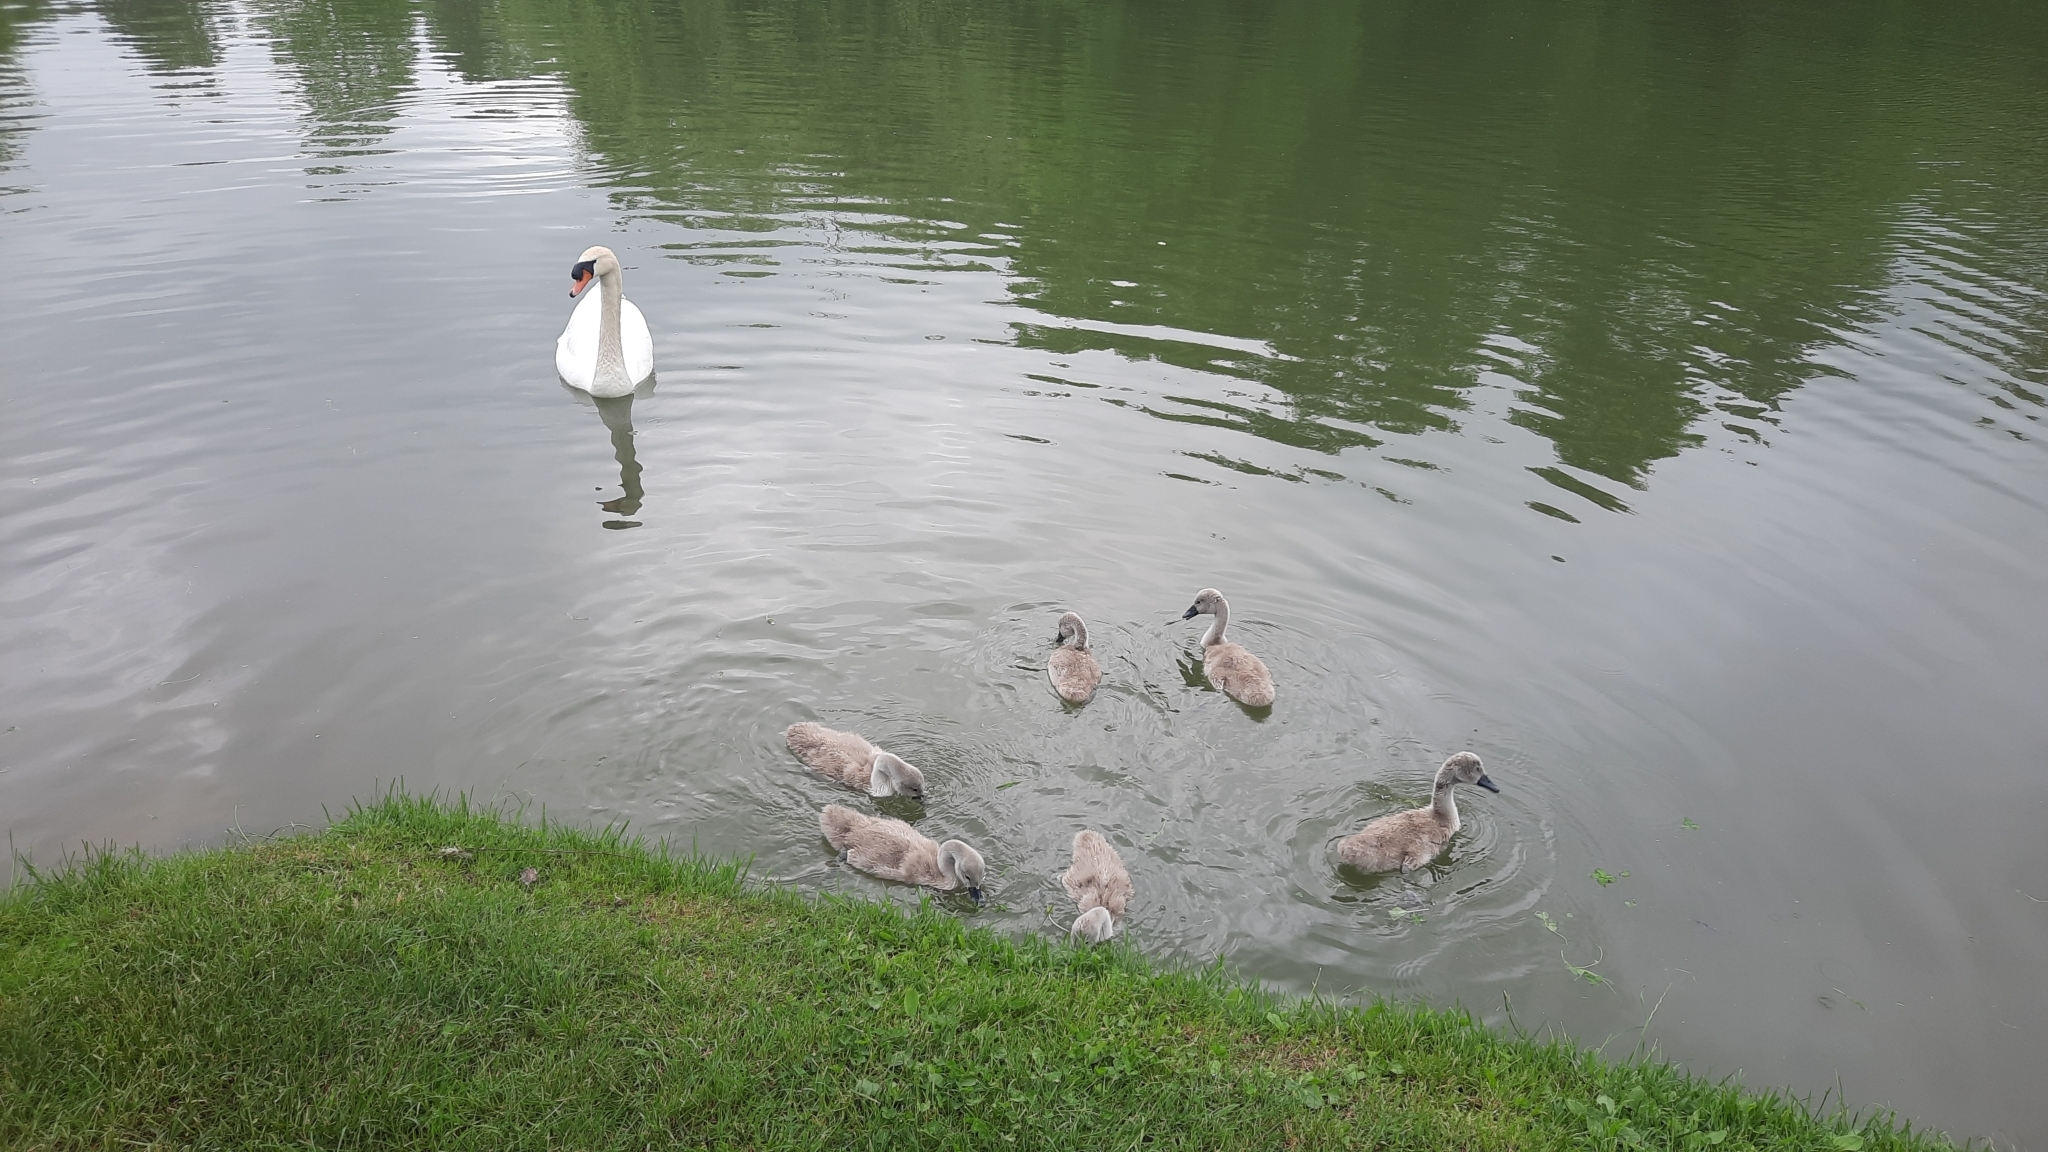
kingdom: Animalia
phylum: Chordata
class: Aves
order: Anseriformes
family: Anatidae
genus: Cygnus
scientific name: Cygnus olor
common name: Mute swan
